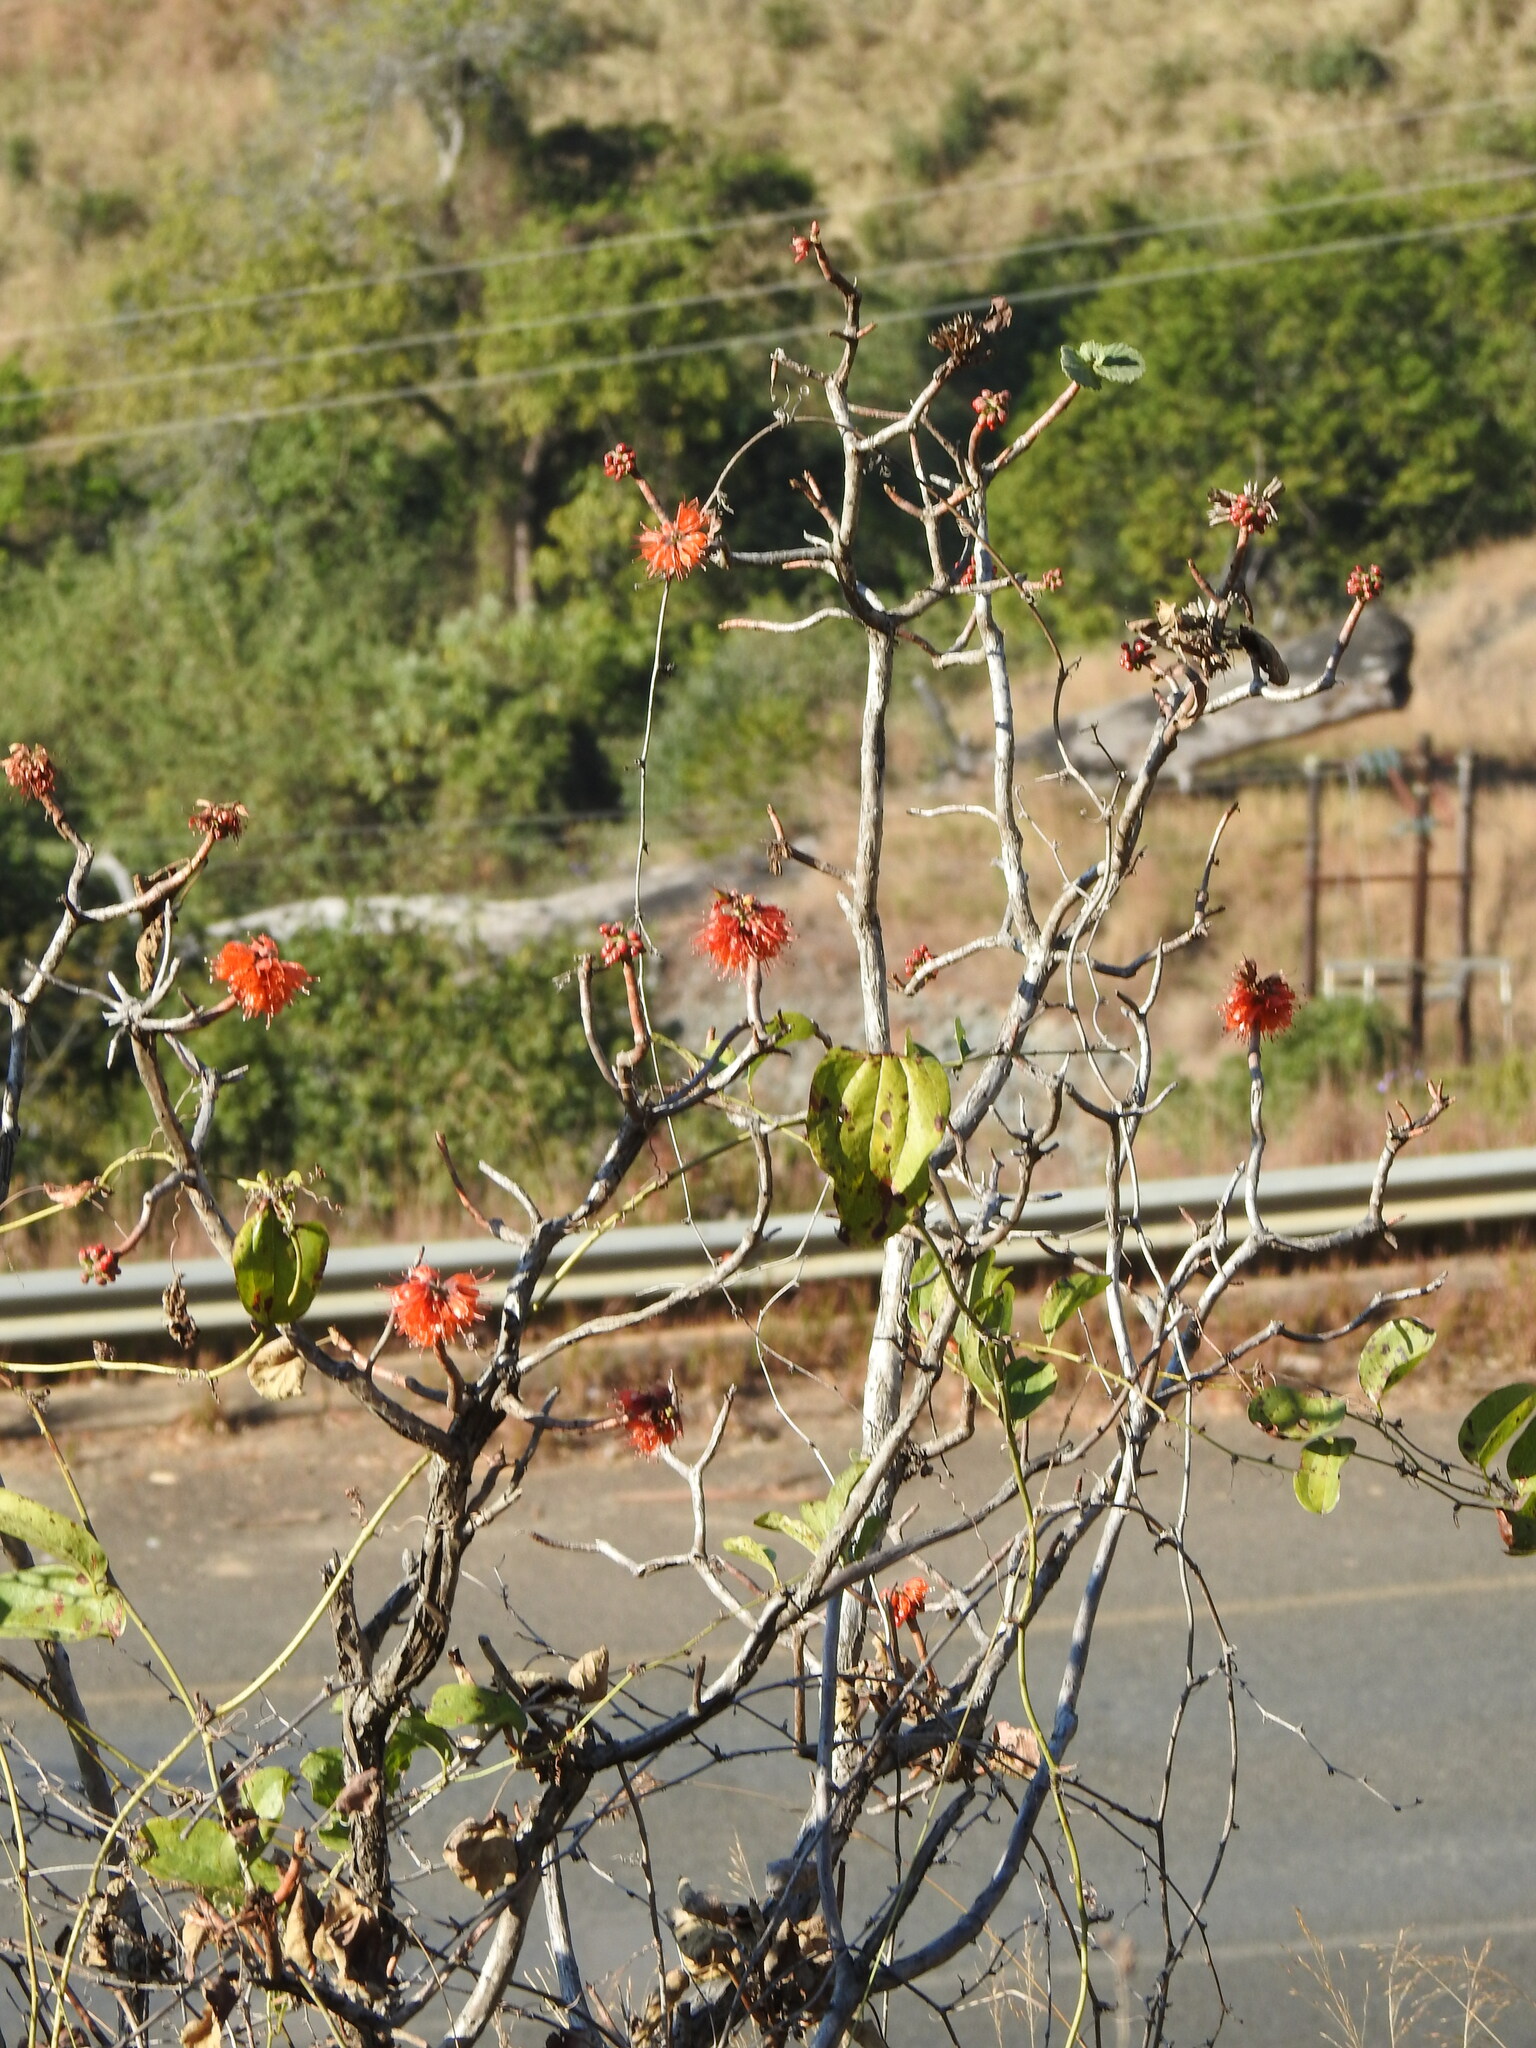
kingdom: Plantae
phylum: Tracheophyta
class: Magnoliopsida
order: Geraniales
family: Francoaceae
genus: Greyia
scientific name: Greyia radlkoferi
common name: Natal bottlebrush
